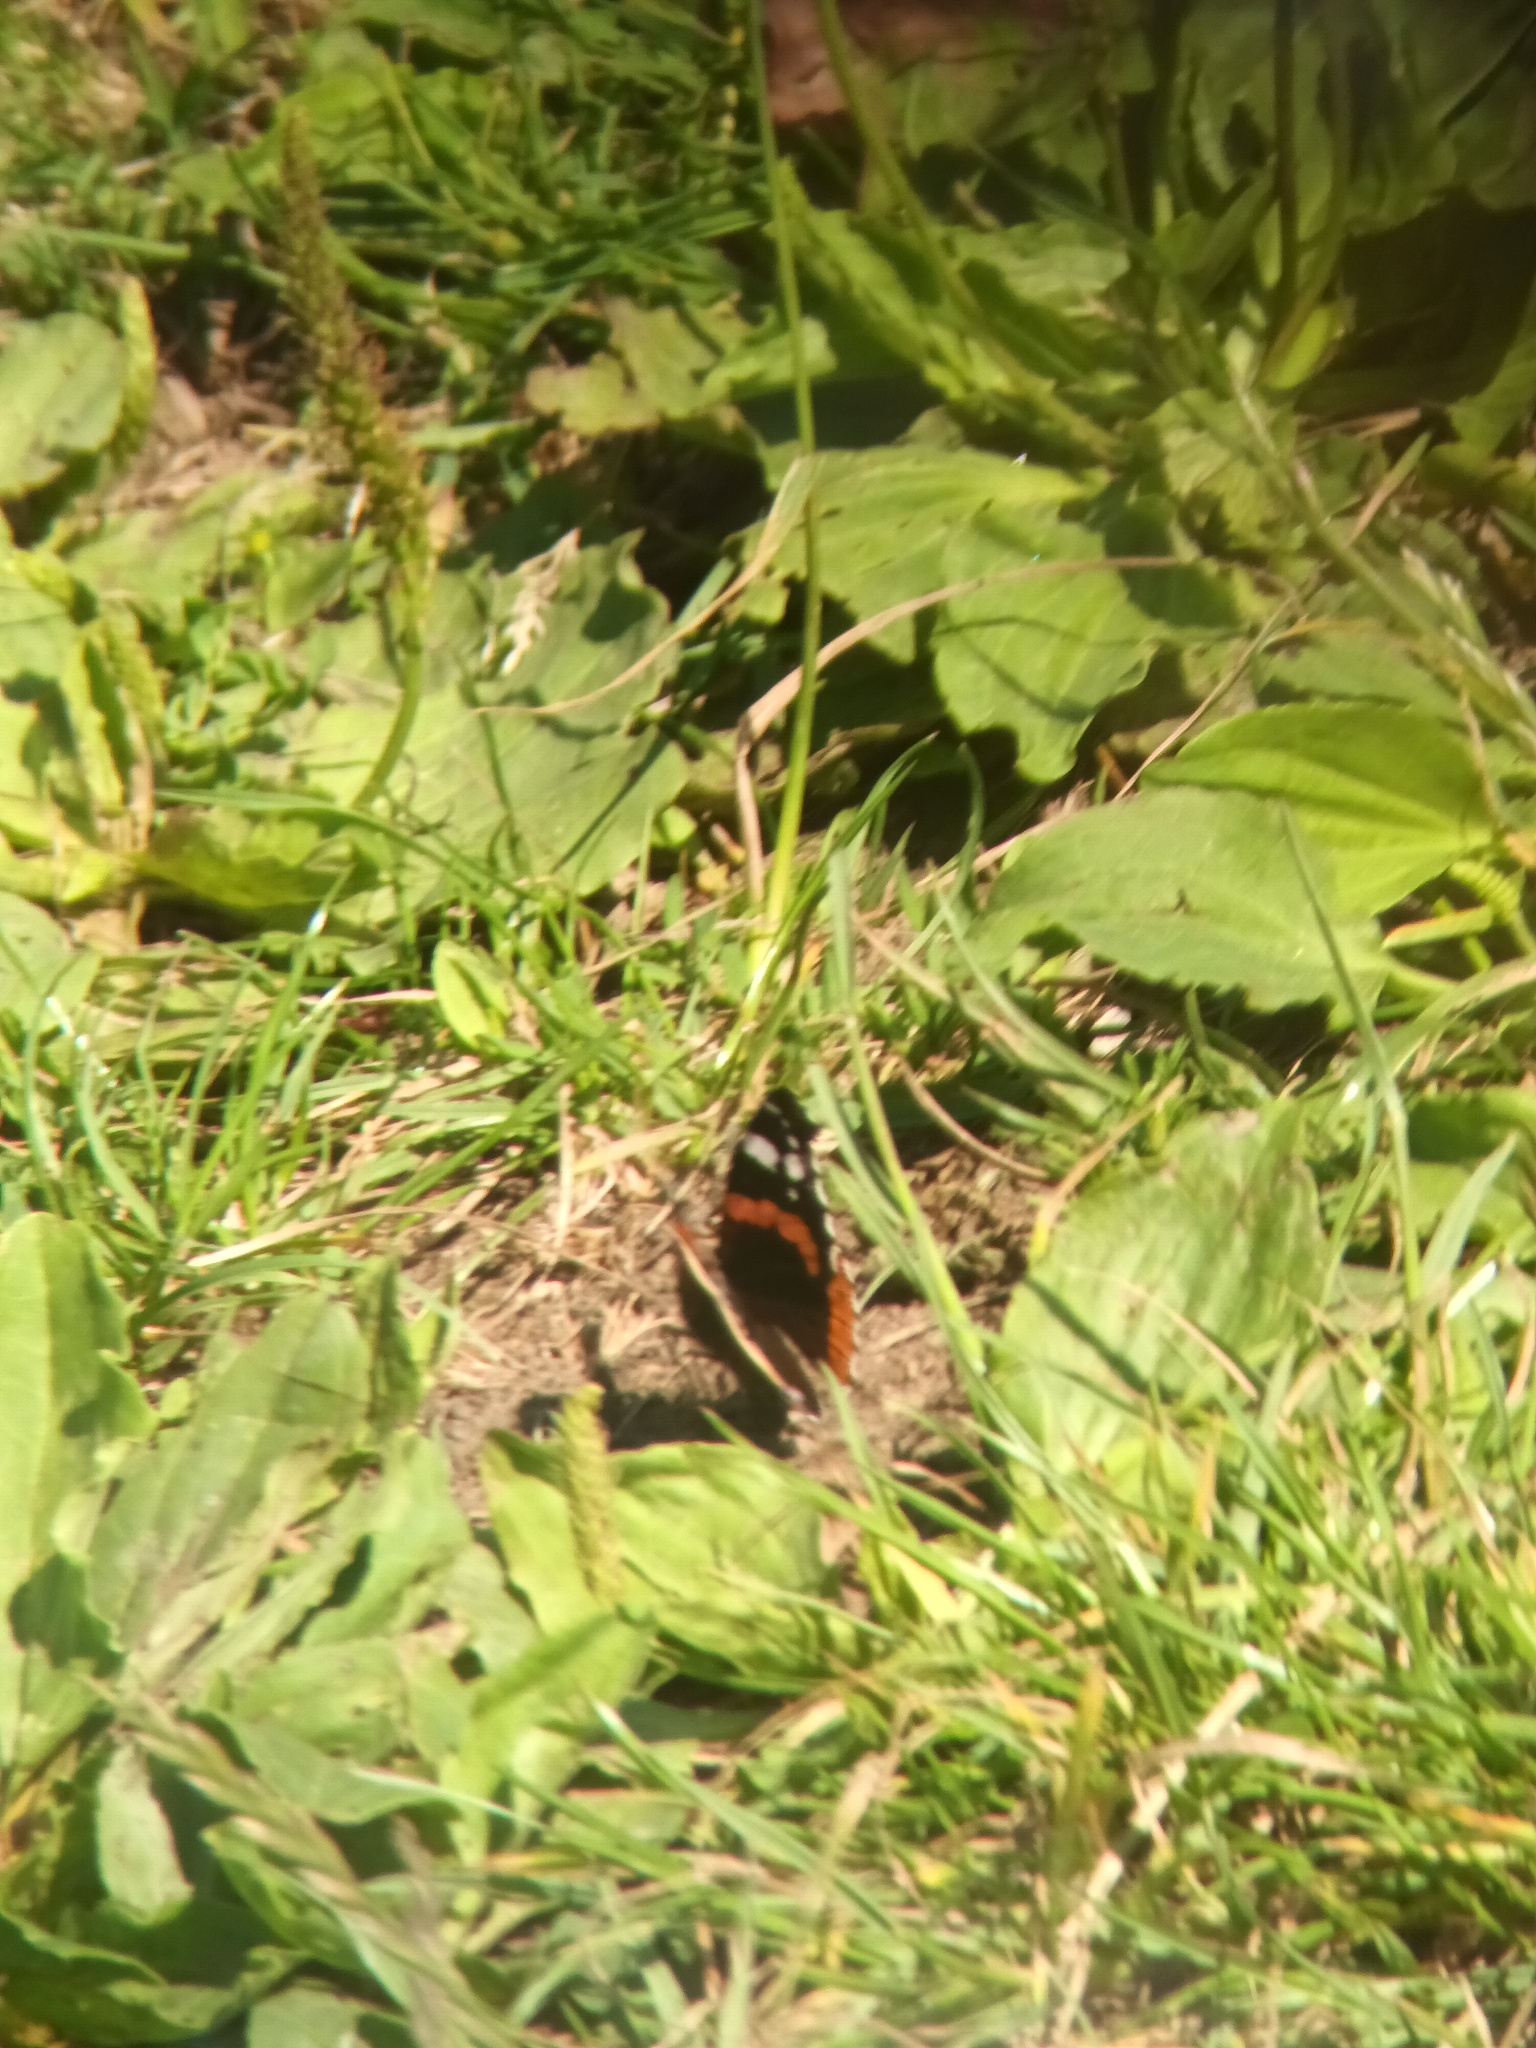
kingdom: Animalia
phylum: Arthropoda
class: Insecta
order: Lepidoptera
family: Nymphalidae
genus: Vanessa
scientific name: Vanessa atalanta
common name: Red admiral
